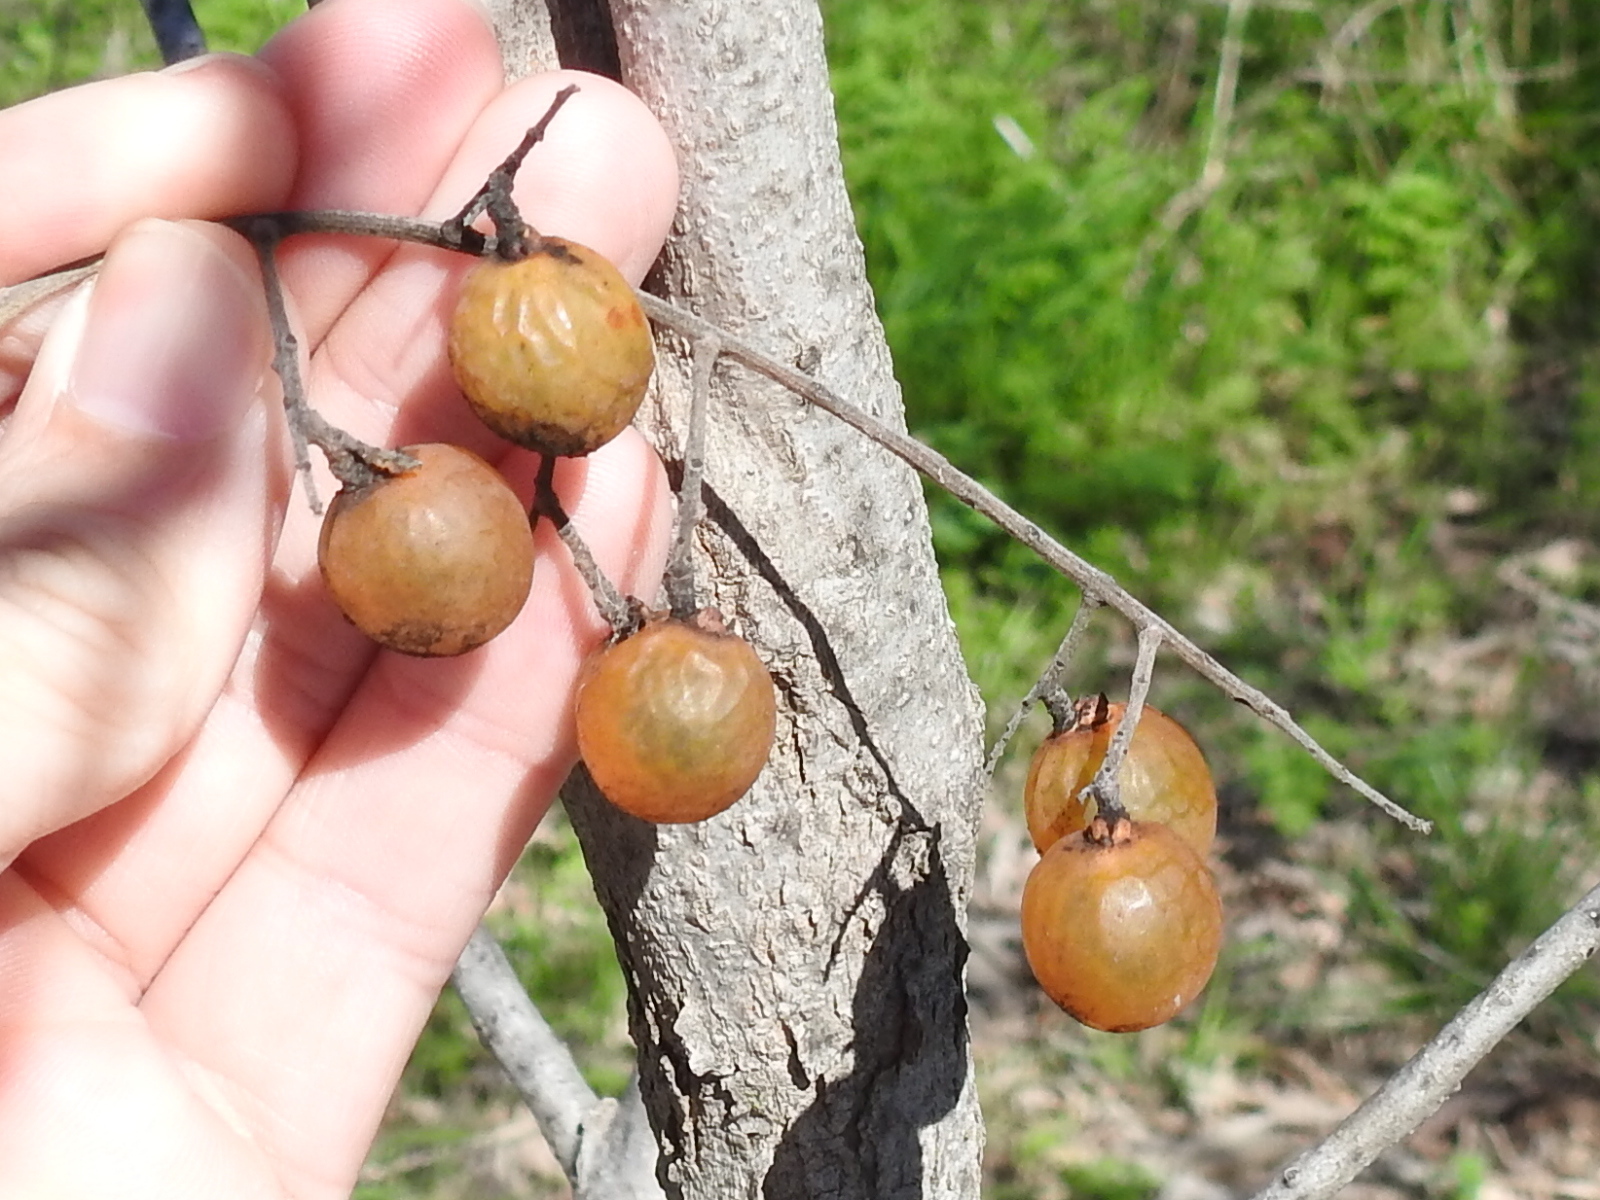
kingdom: Plantae
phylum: Tracheophyta
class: Magnoliopsida
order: Sapindales
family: Sapindaceae
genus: Sapindus
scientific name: Sapindus drummondii
